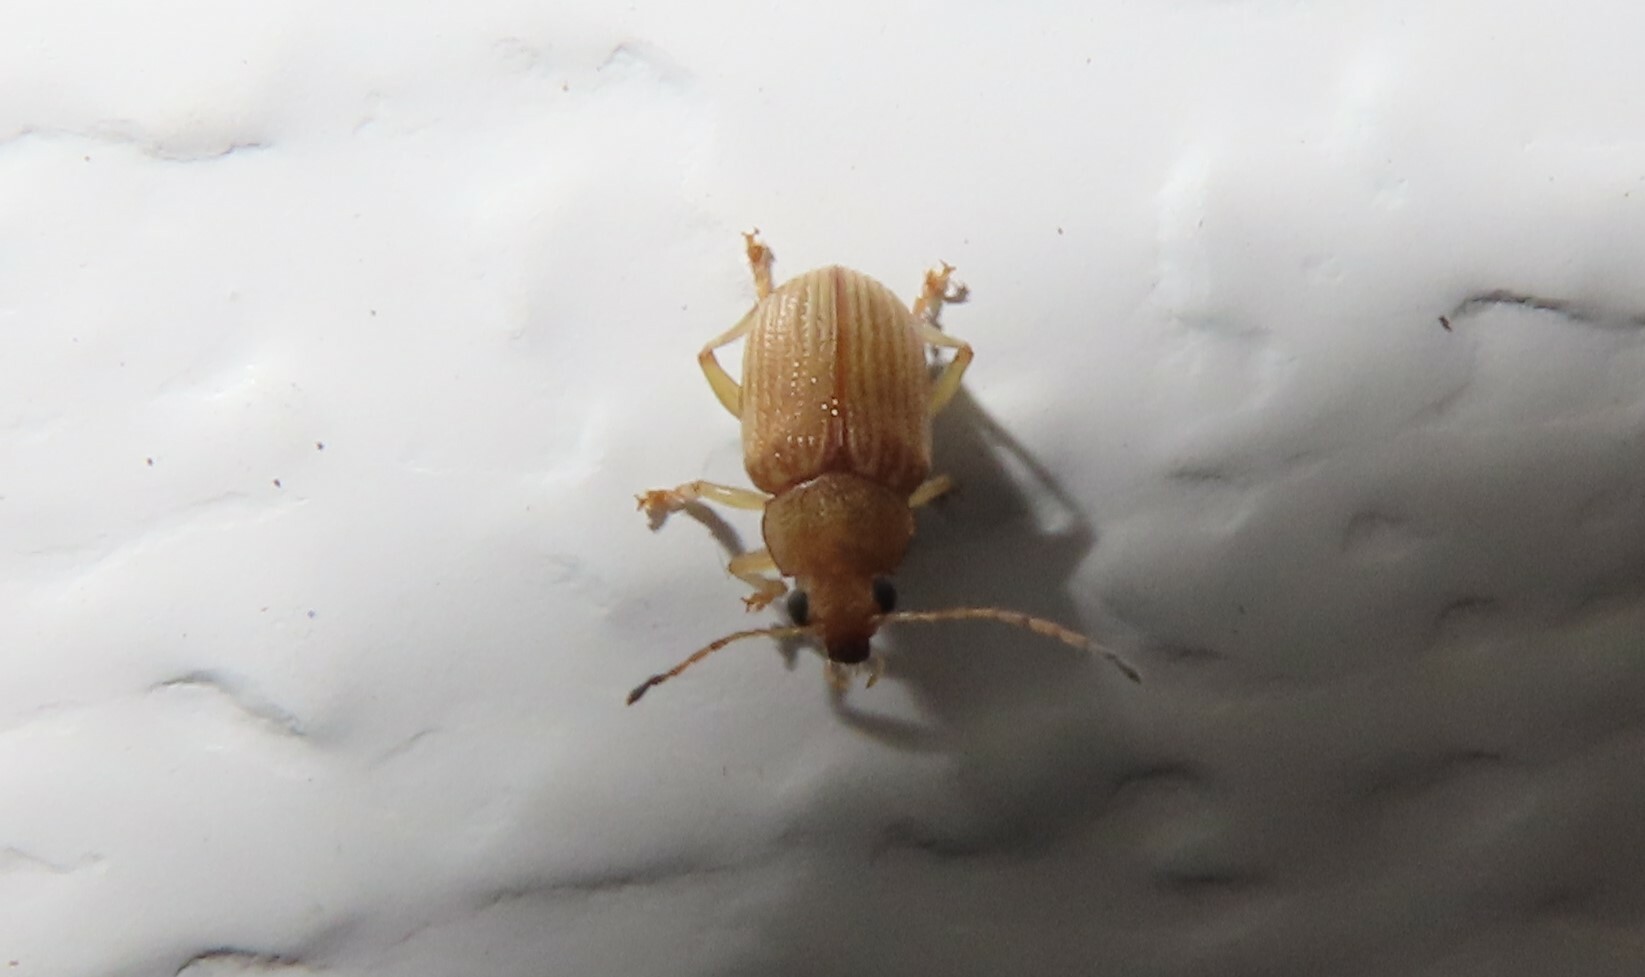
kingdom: Animalia
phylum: Arthropoda
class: Insecta
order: Coleoptera
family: Chrysomelidae
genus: Colaspis
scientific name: Colaspis brunnea
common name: Grape colaspis
